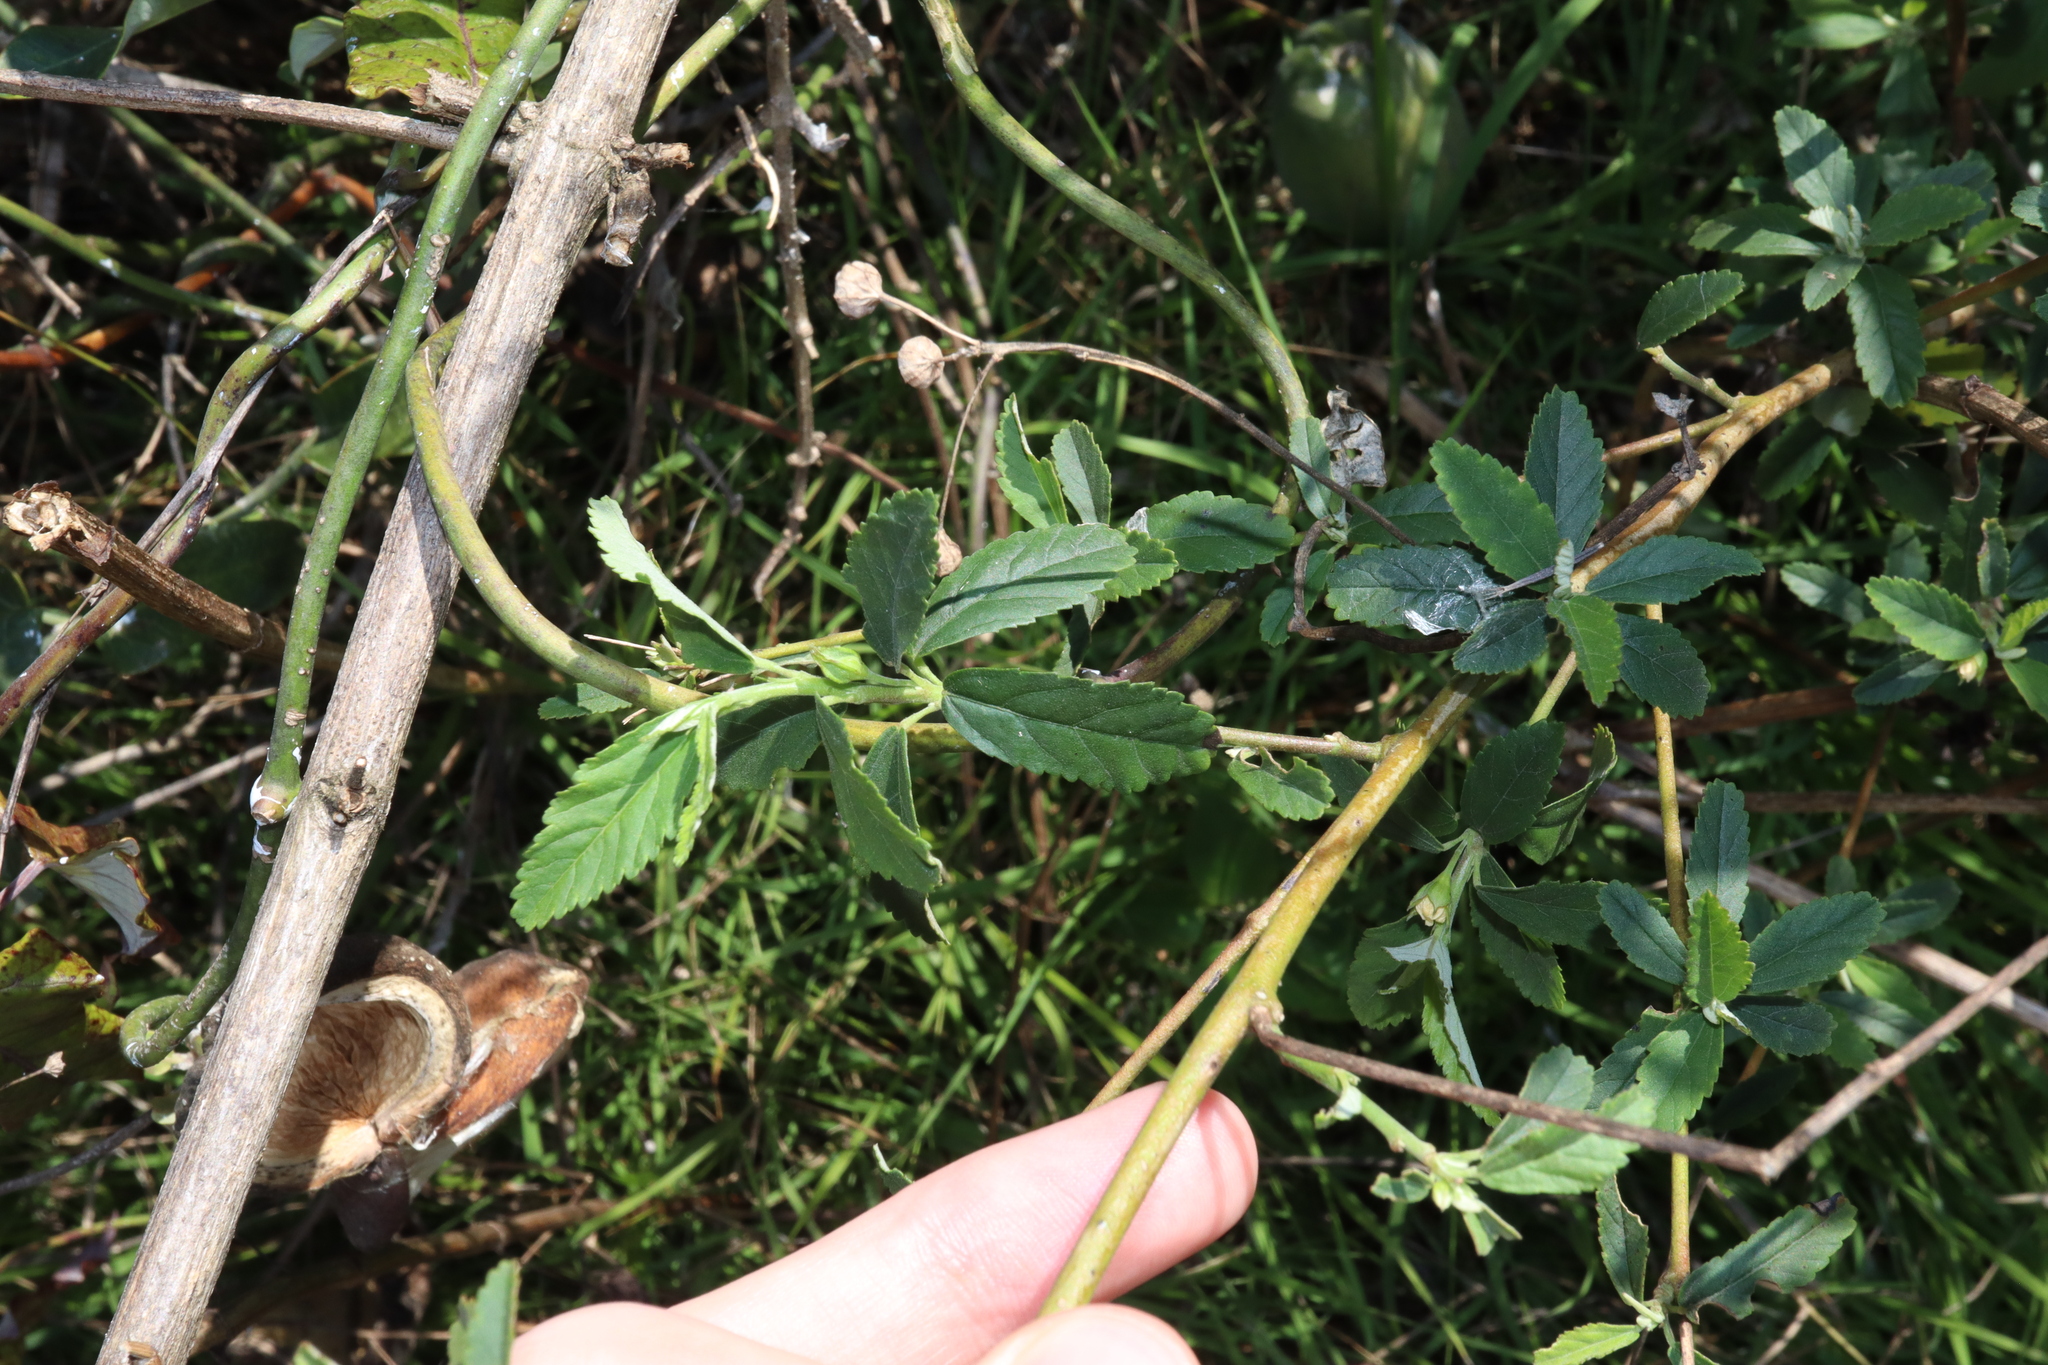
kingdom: Plantae
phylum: Tracheophyta
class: Magnoliopsida
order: Malvales
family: Malvaceae
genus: Sida
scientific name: Sida rhombifolia
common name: Queensland-hemp
